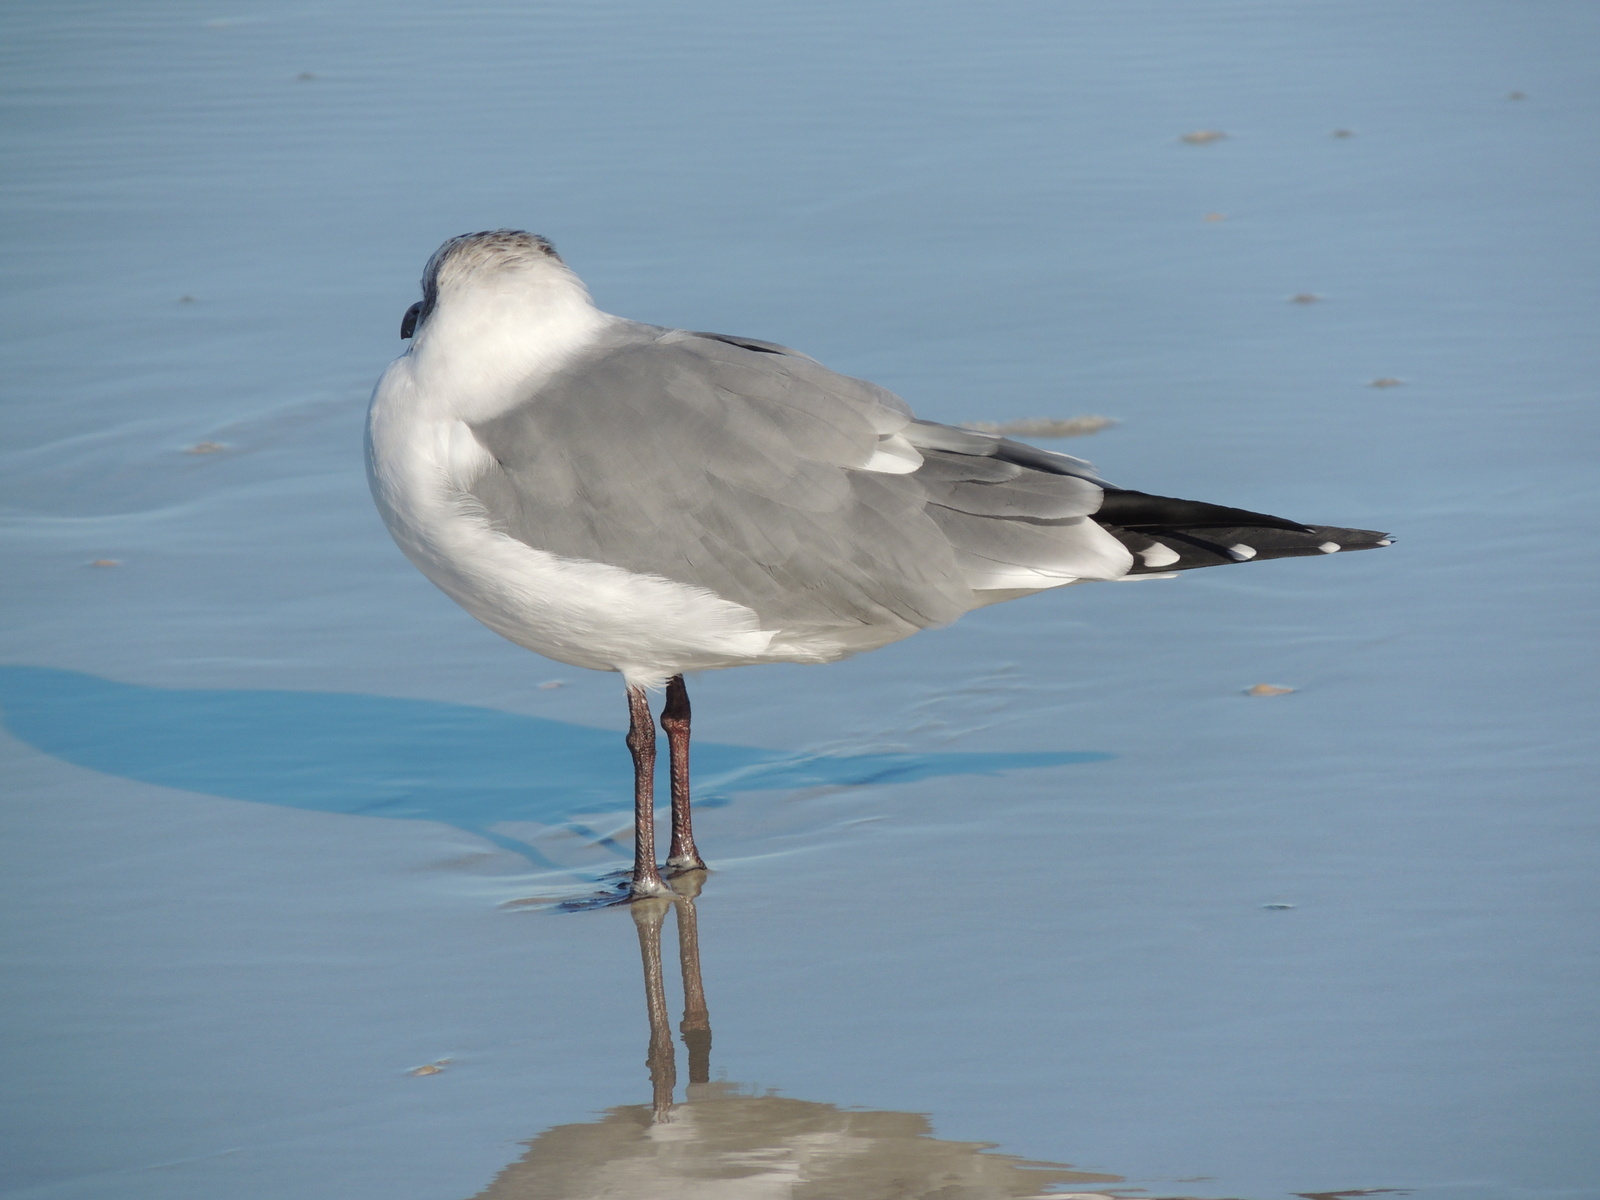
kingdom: Animalia
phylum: Chordata
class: Aves
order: Charadriiformes
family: Laridae
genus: Leucophaeus
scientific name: Leucophaeus atricilla
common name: Laughing gull
